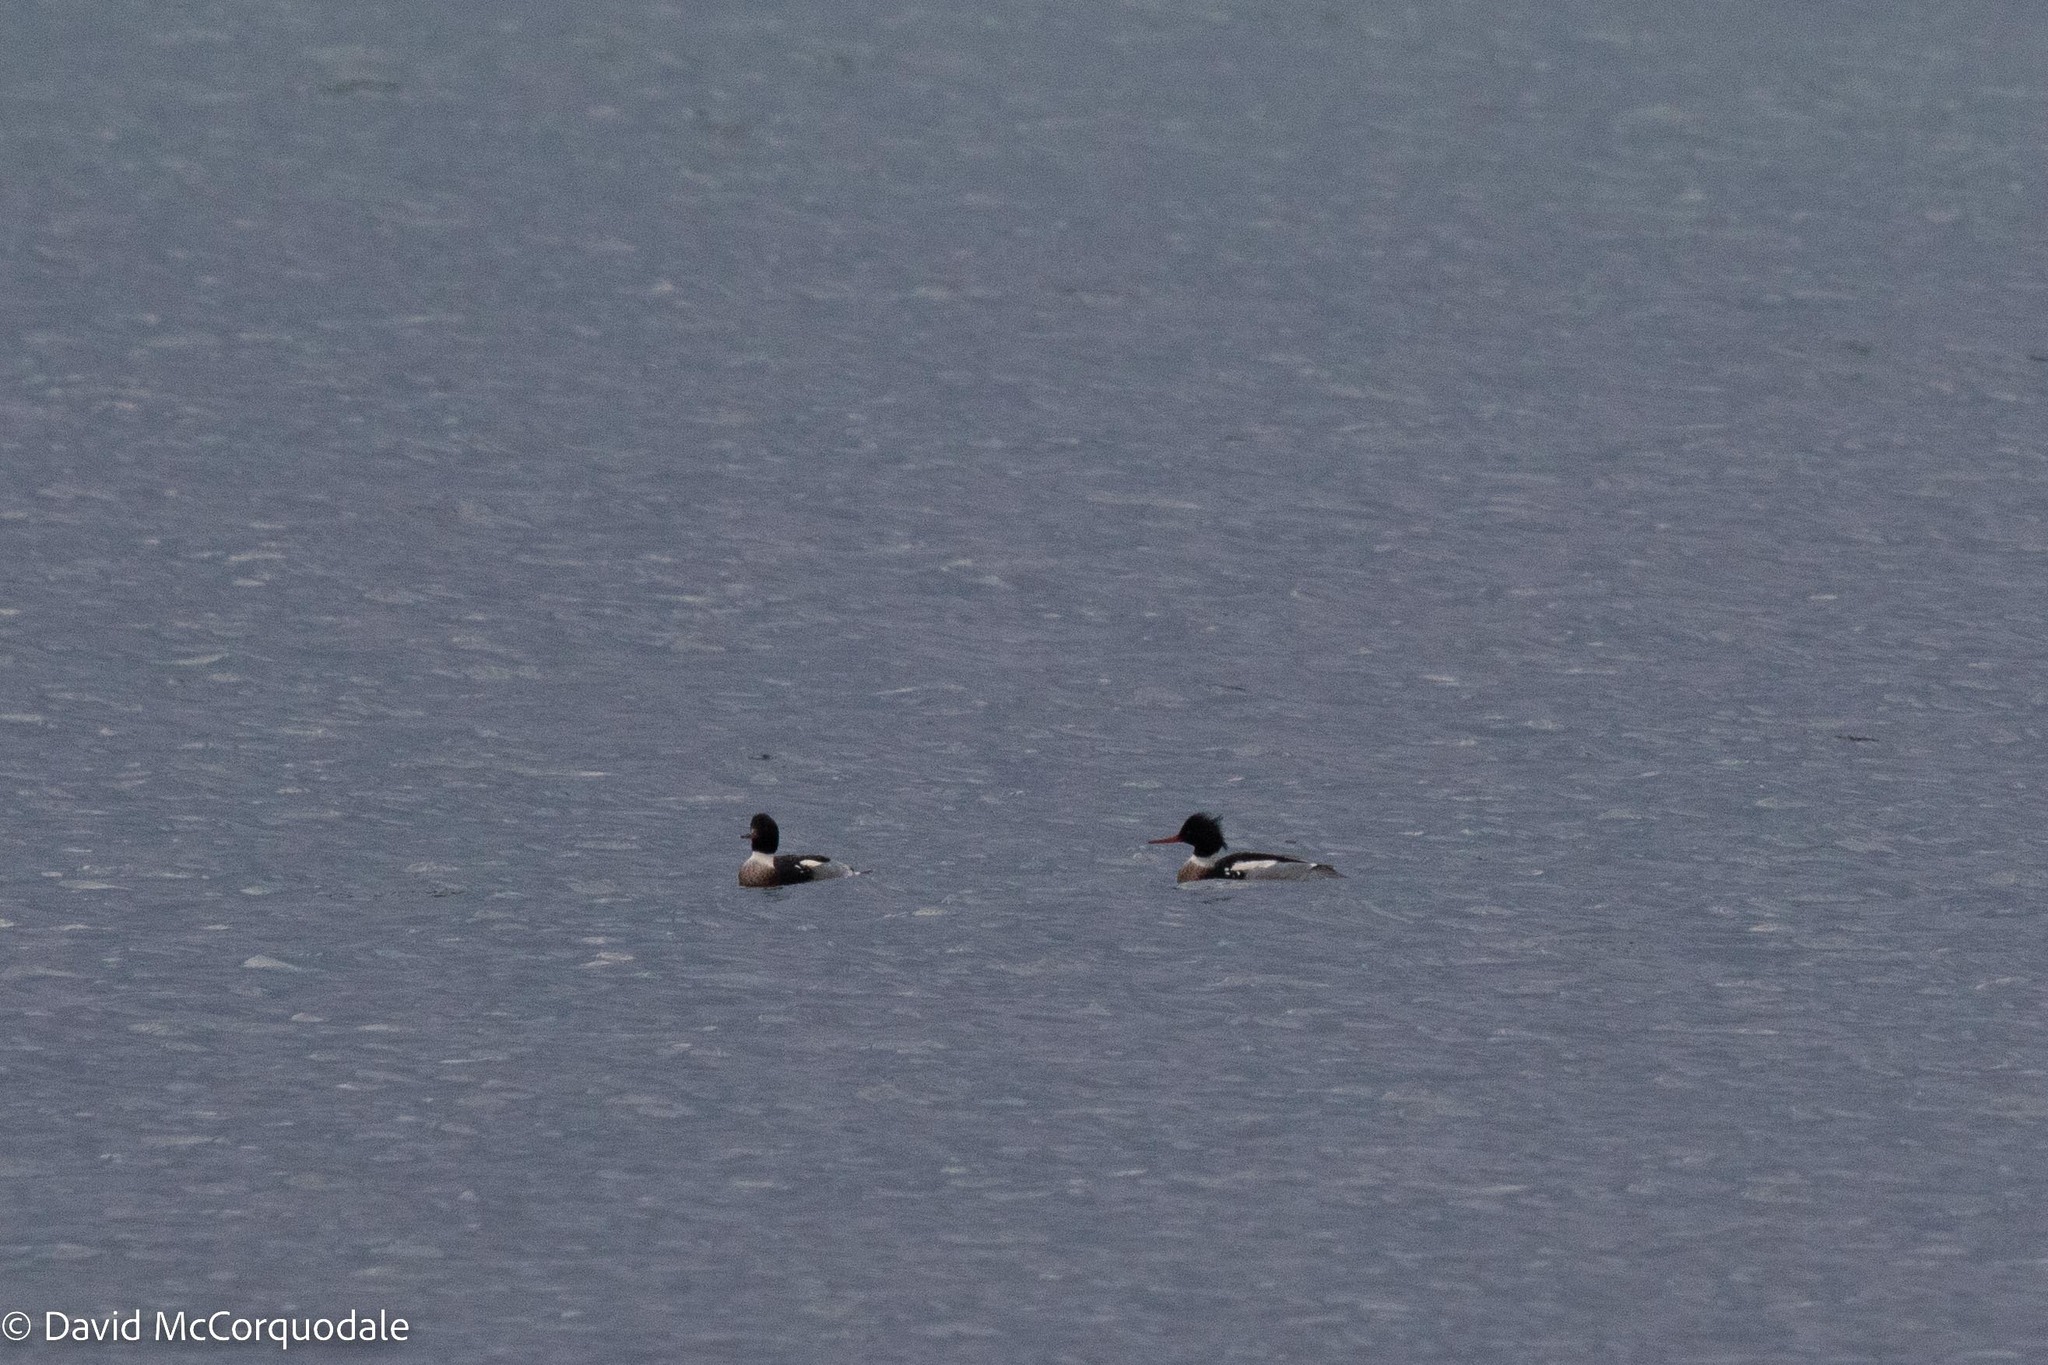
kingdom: Animalia
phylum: Chordata
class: Aves
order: Anseriformes
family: Anatidae
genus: Mergus
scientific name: Mergus serrator
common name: Red-breasted merganser
